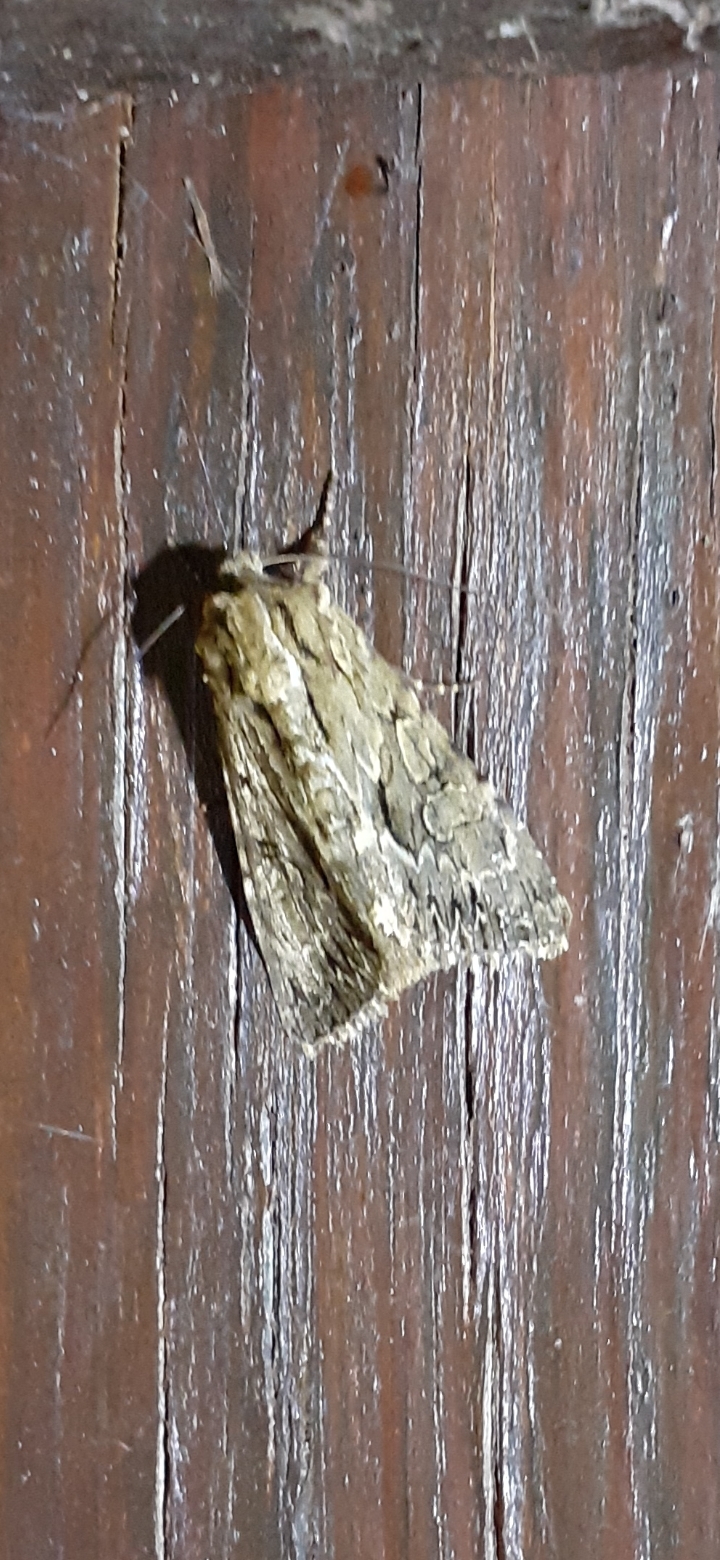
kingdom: Animalia
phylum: Arthropoda
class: Insecta
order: Lepidoptera
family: Noctuidae
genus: Apamea
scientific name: Apamea monoglypha
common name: Dark arches
